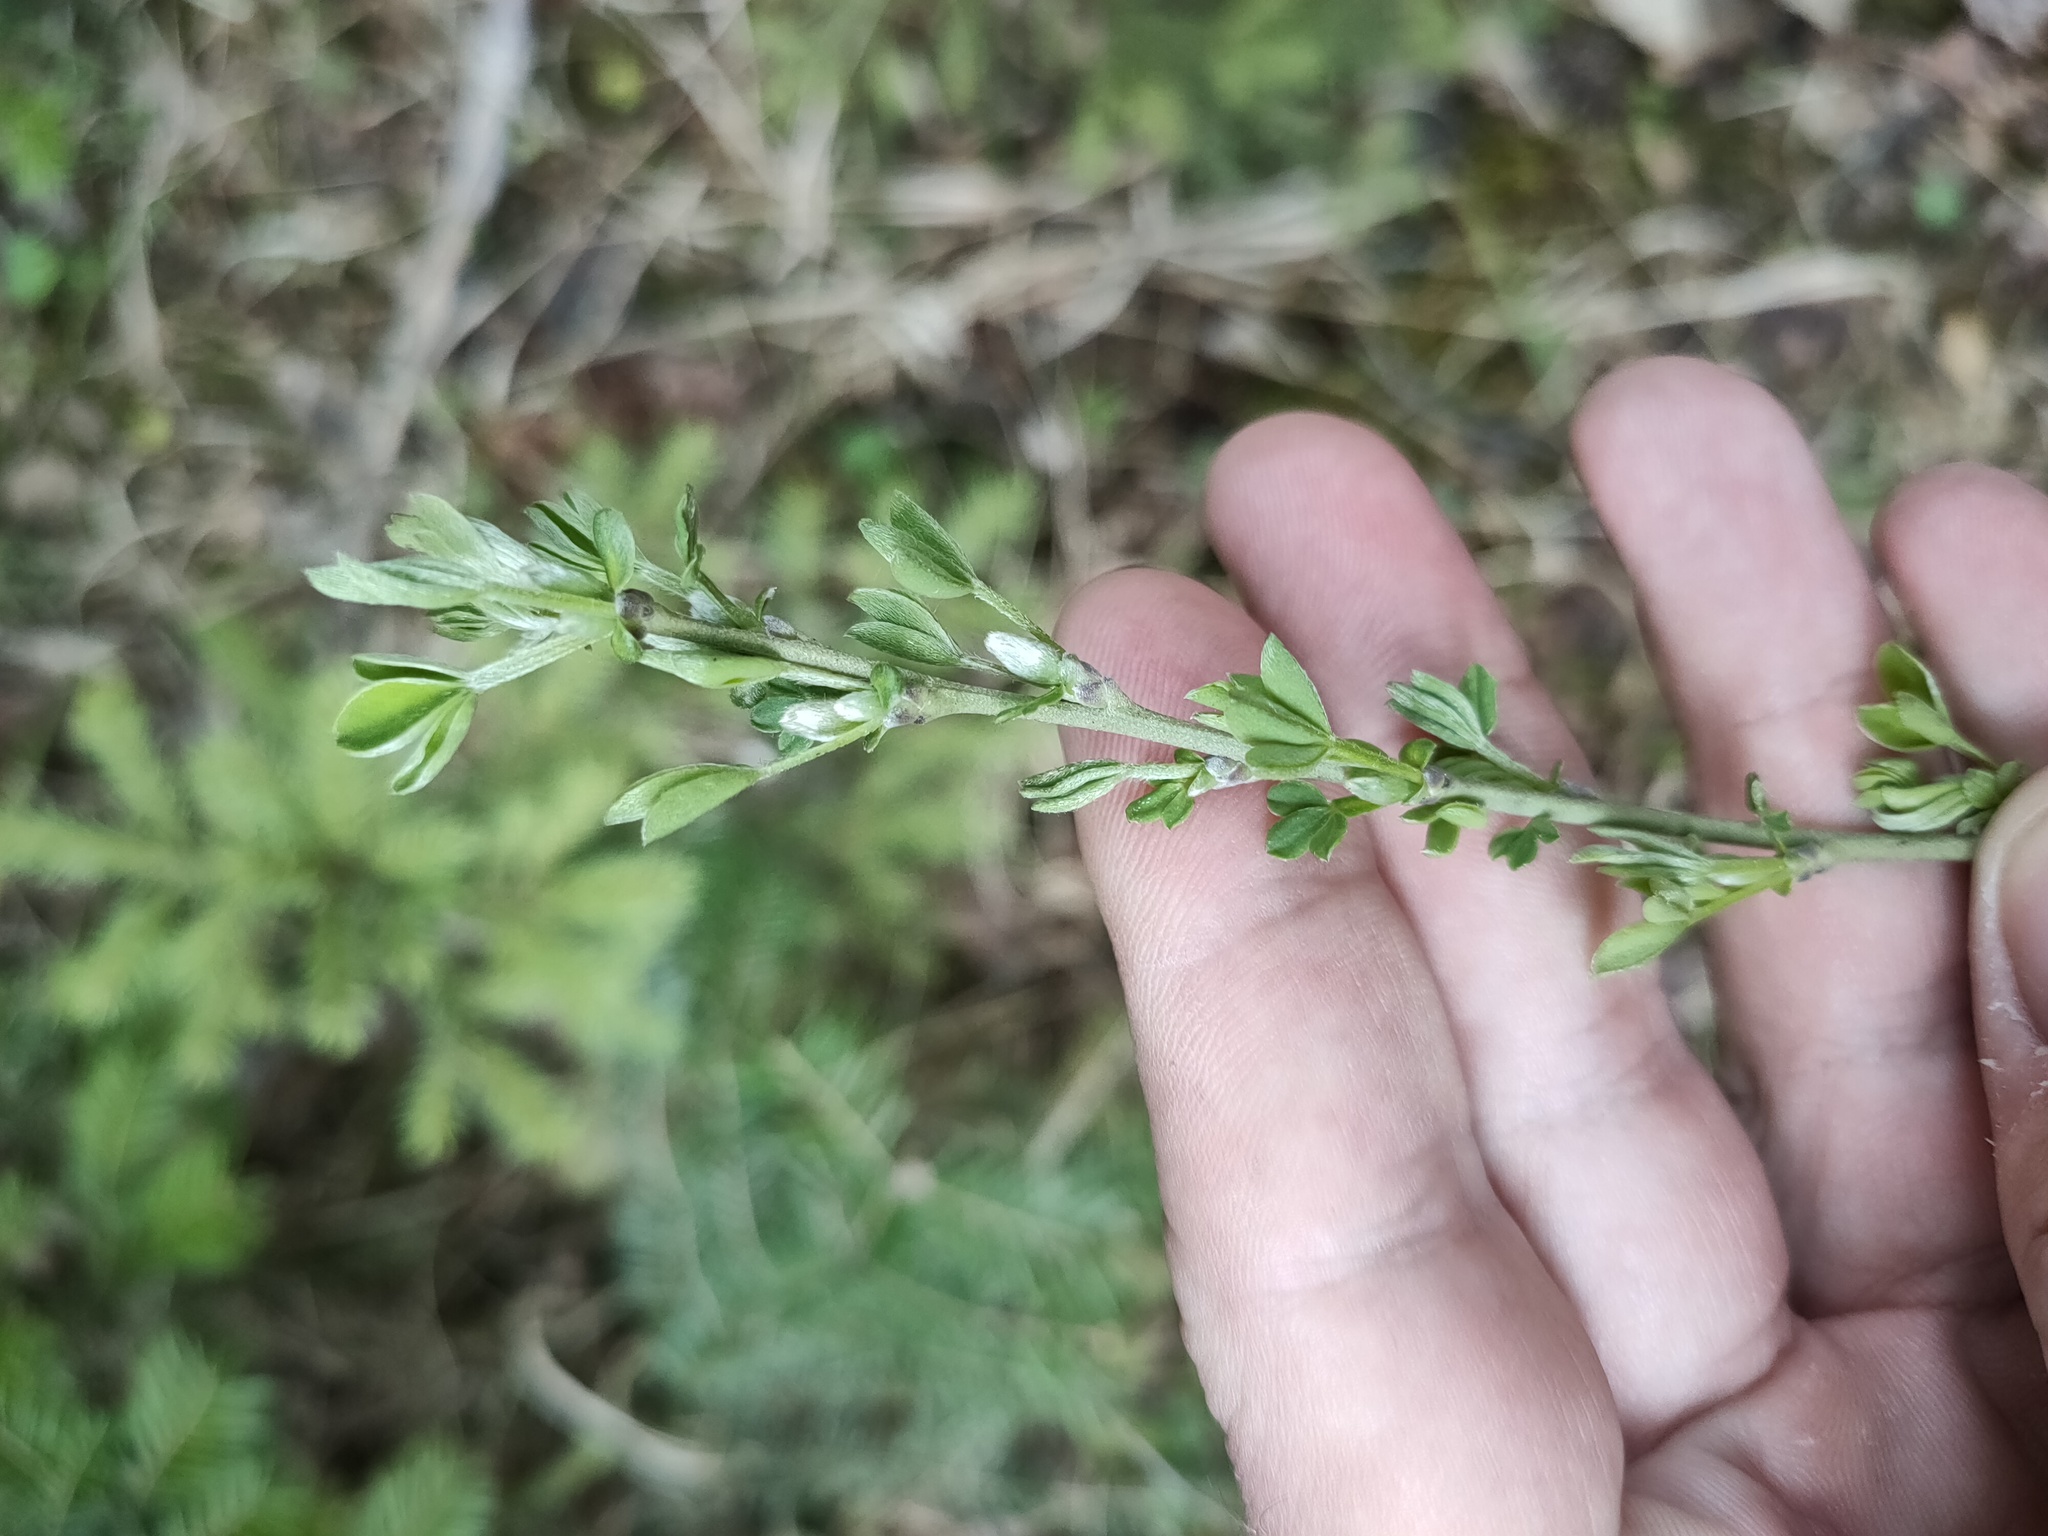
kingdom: Plantae
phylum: Tracheophyta
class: Magnoliopsida
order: Fabales
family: Fabaceae
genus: Chamaecytisus
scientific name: Chamaecytisus ruthenicus
